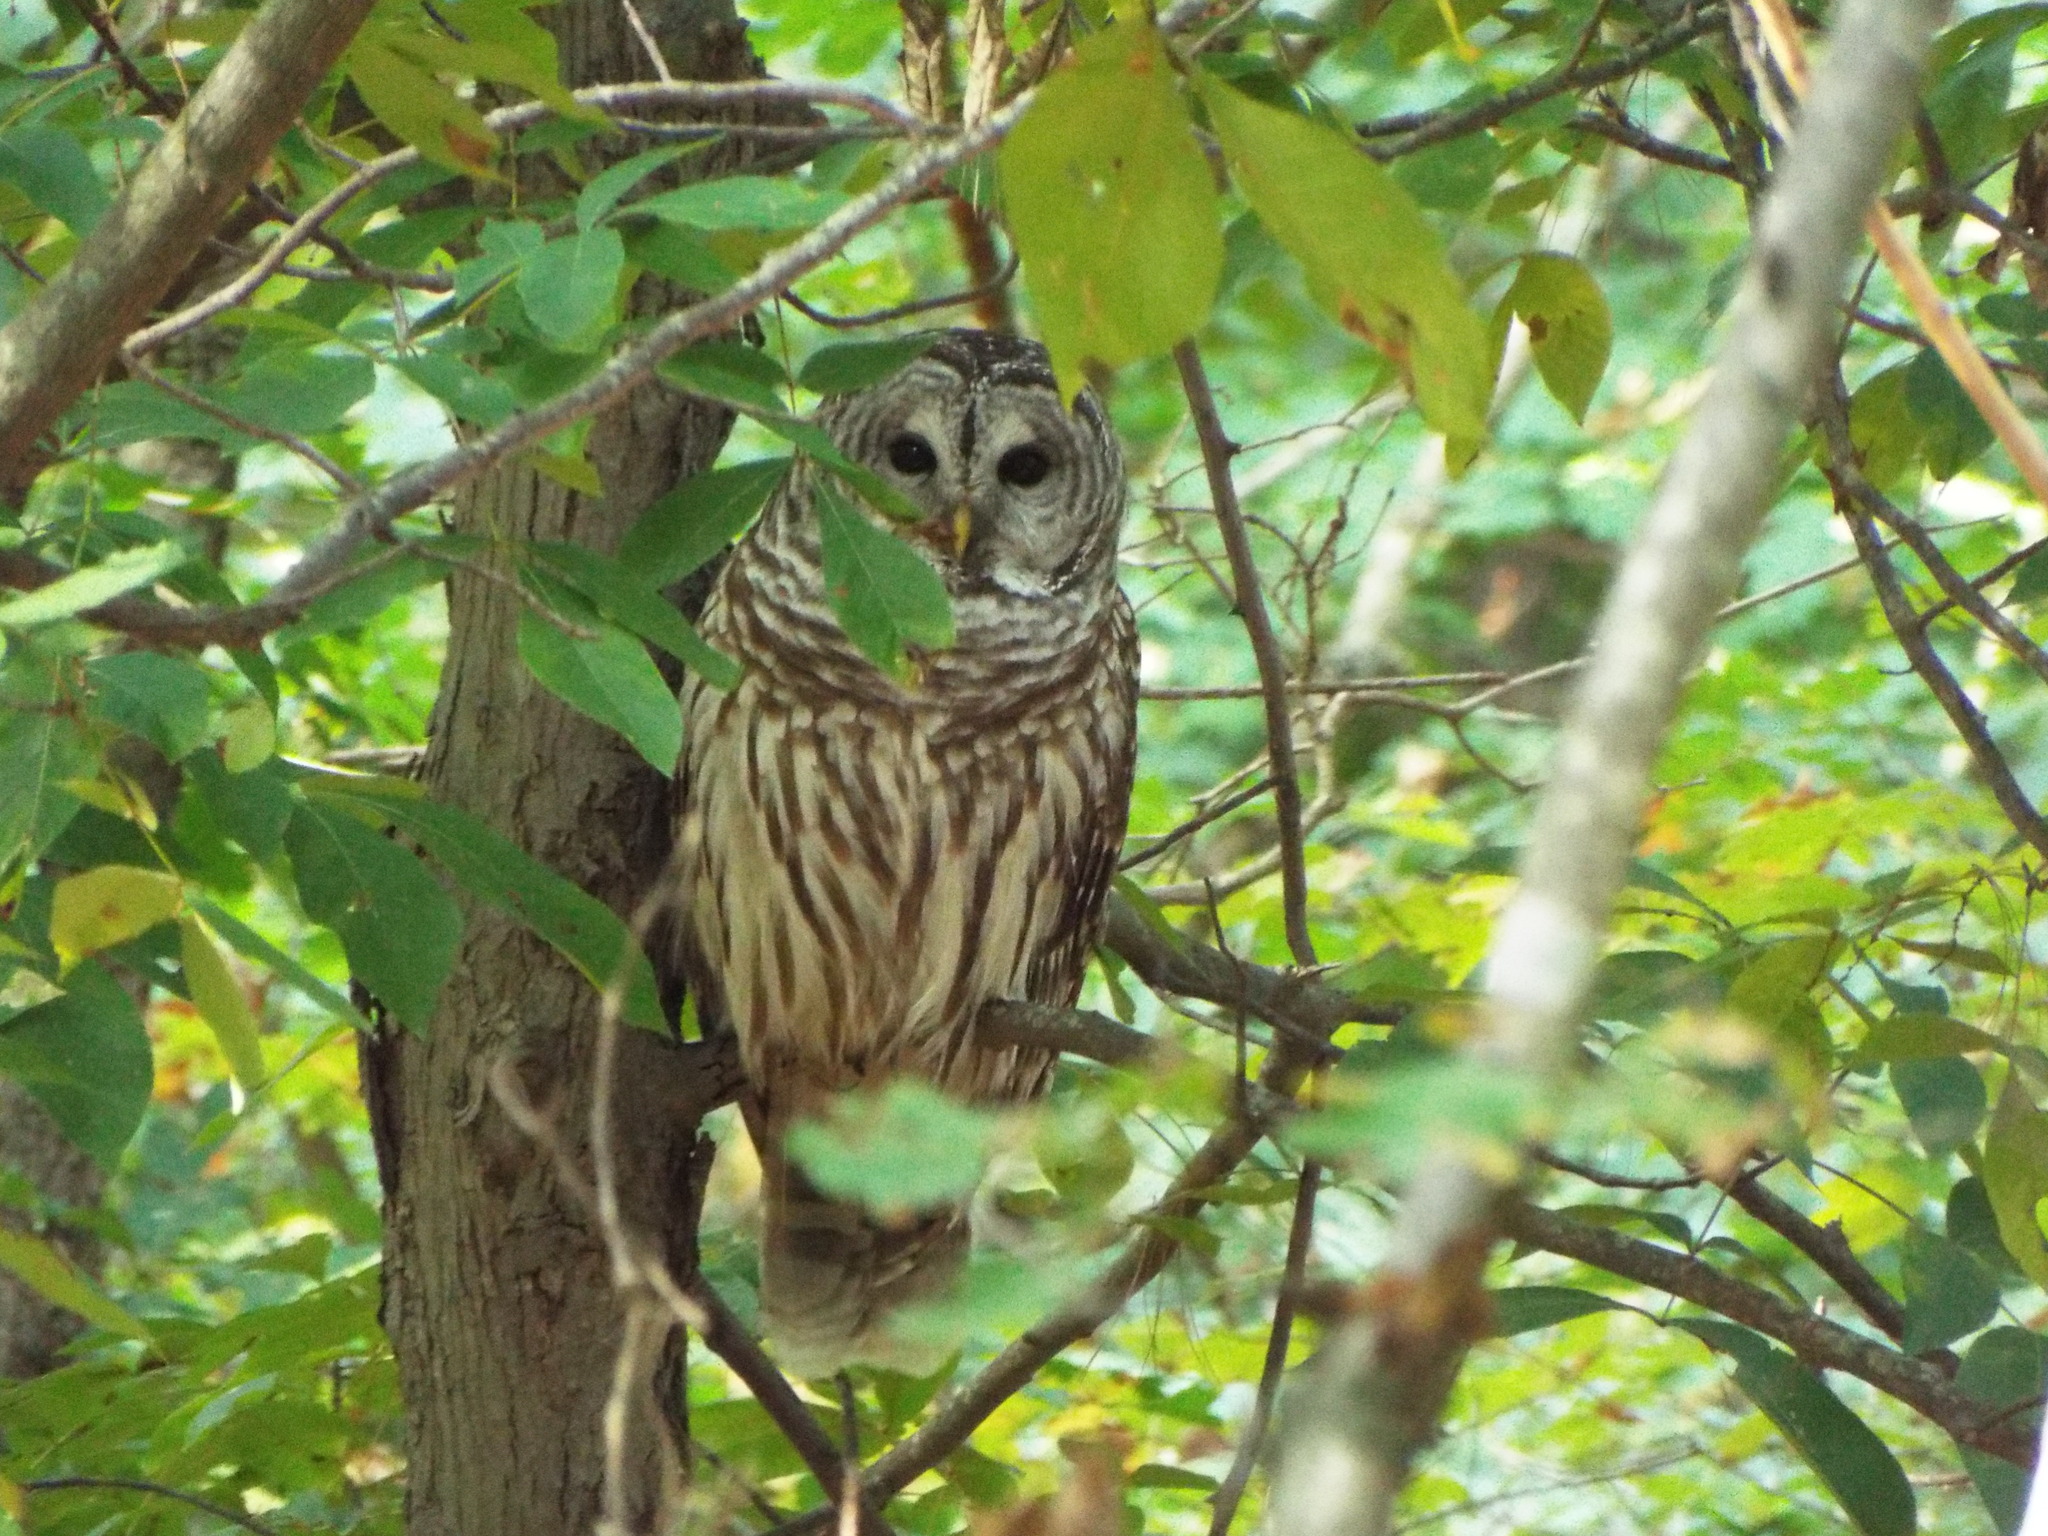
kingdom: Animalia
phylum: Chordata
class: Aves
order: Strigiformes
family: Strigidae
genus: Strix
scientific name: Strix varia
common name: Barred owl
